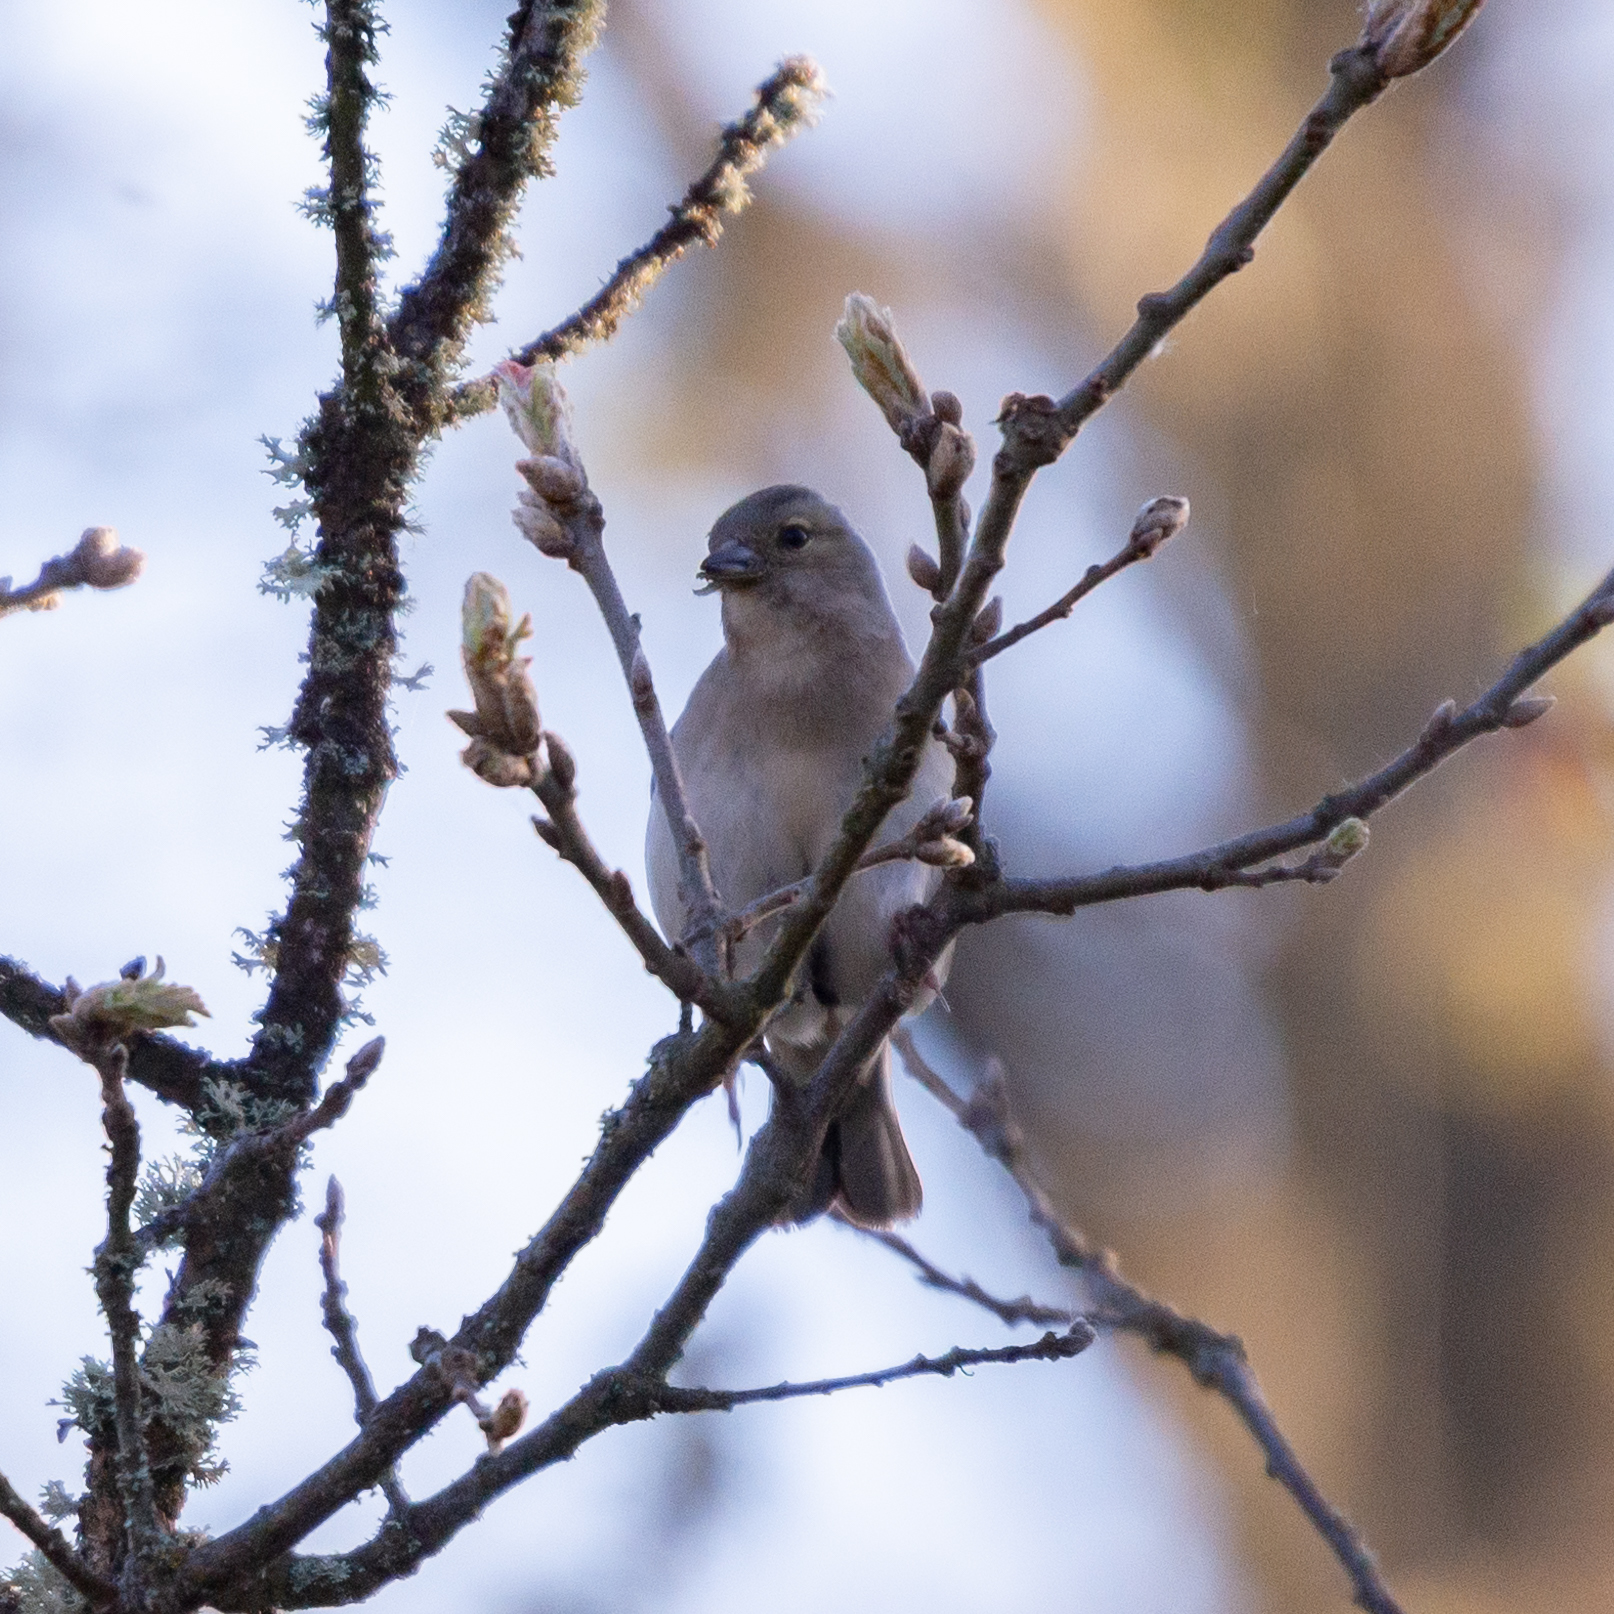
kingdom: Animalia
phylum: Chordata
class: Aves
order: Passeriformes
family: Fringillidae
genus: Fringilla
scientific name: Fringilla coelebs
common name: Common chaffinch
